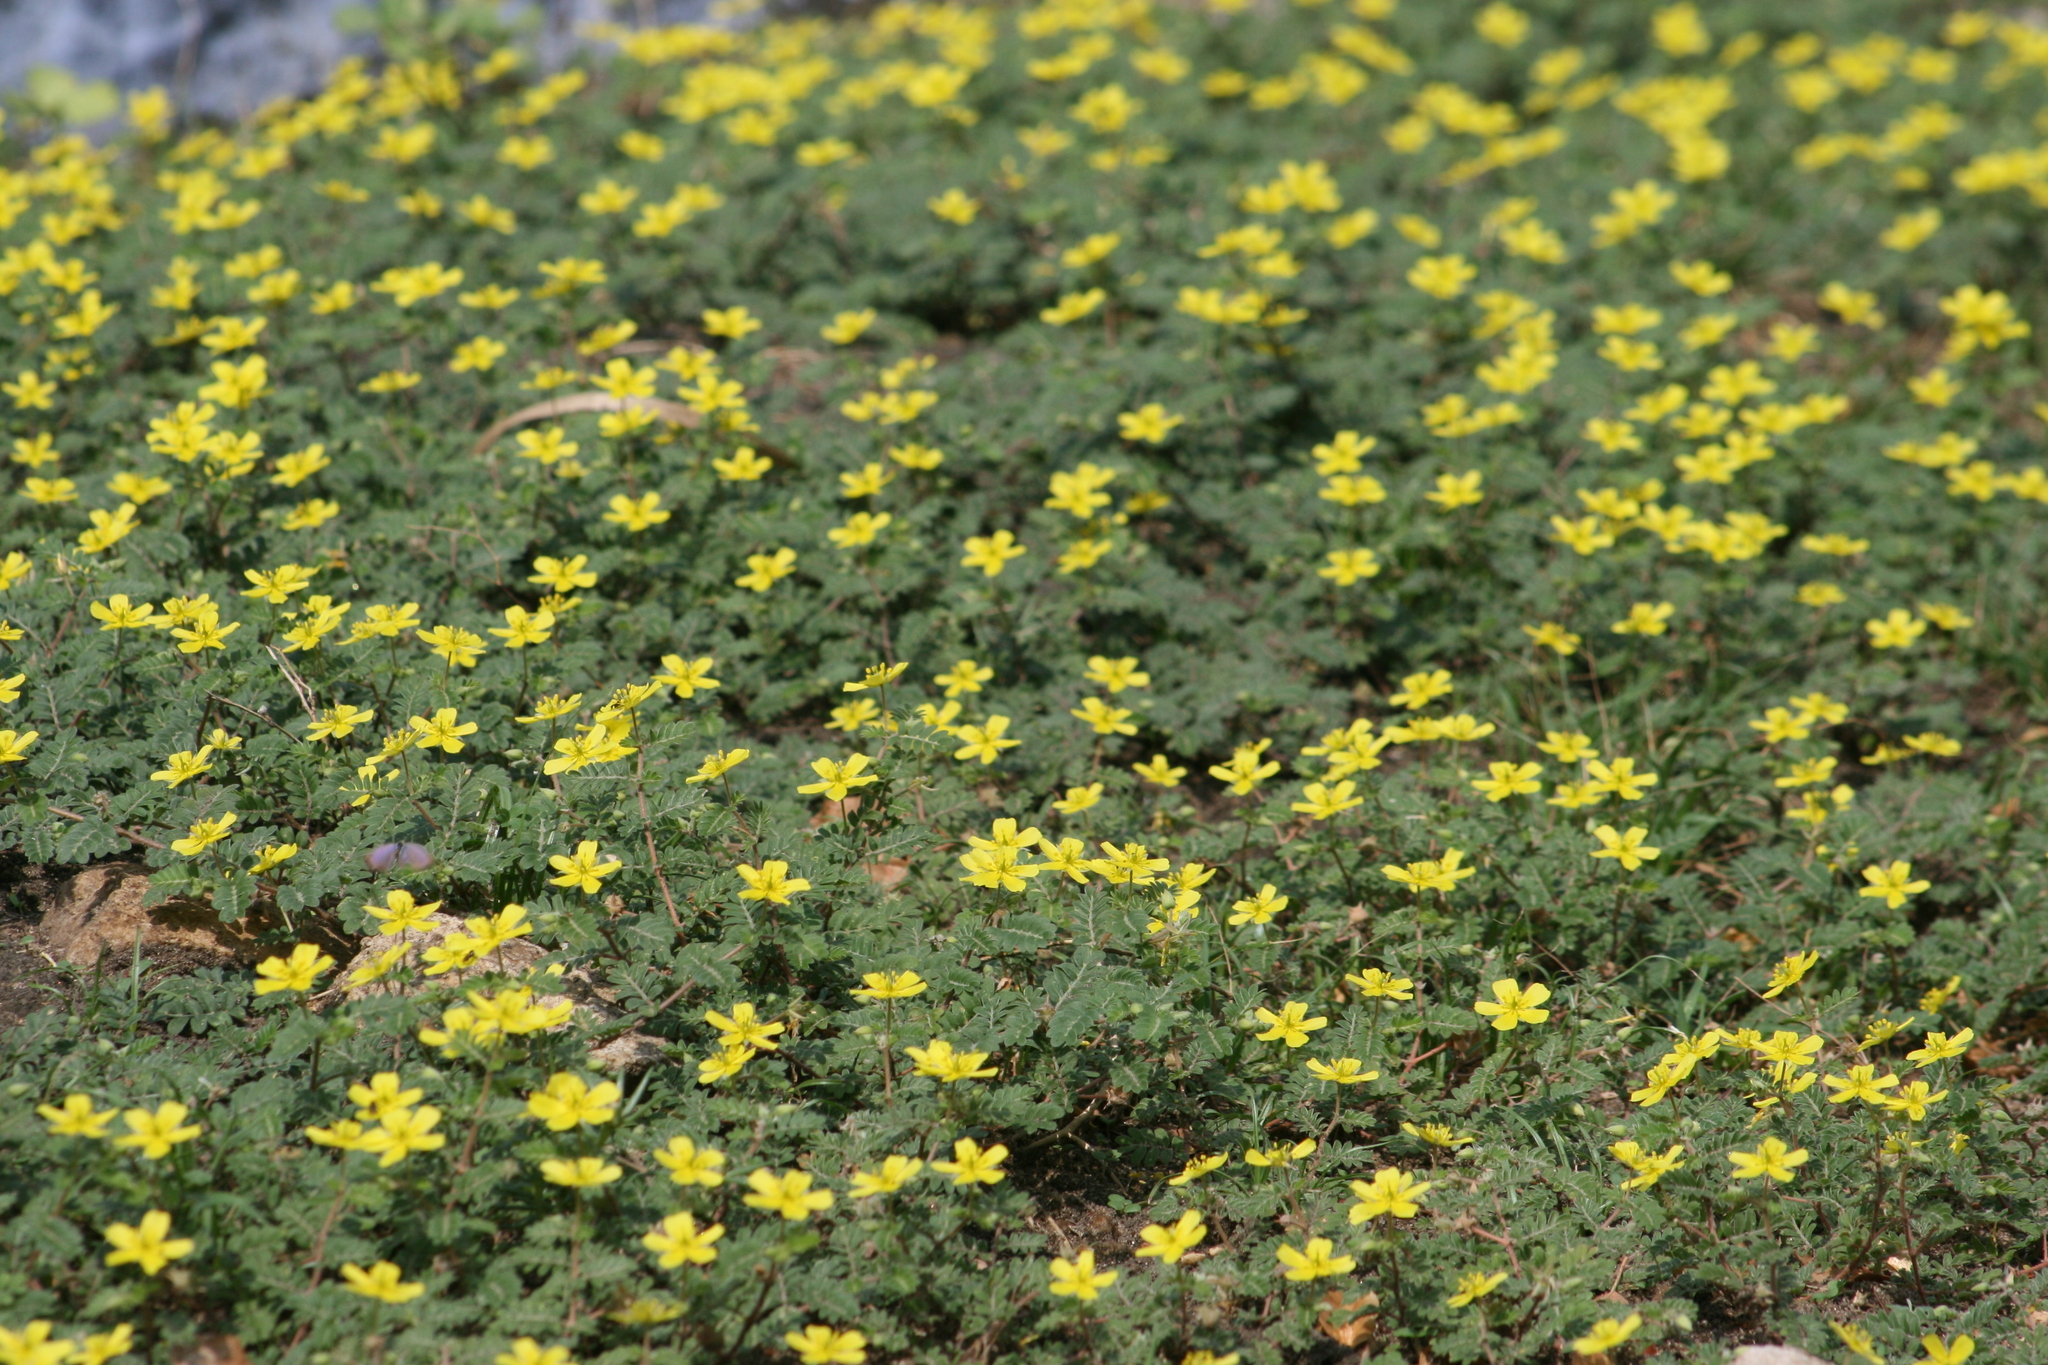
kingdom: Plantae
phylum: Tracheophyta
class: Magnoliopsida
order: Zygophyllales
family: Zygophyllaceae
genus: Tribulus
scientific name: Tribulus terrestris
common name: Puncturevine
